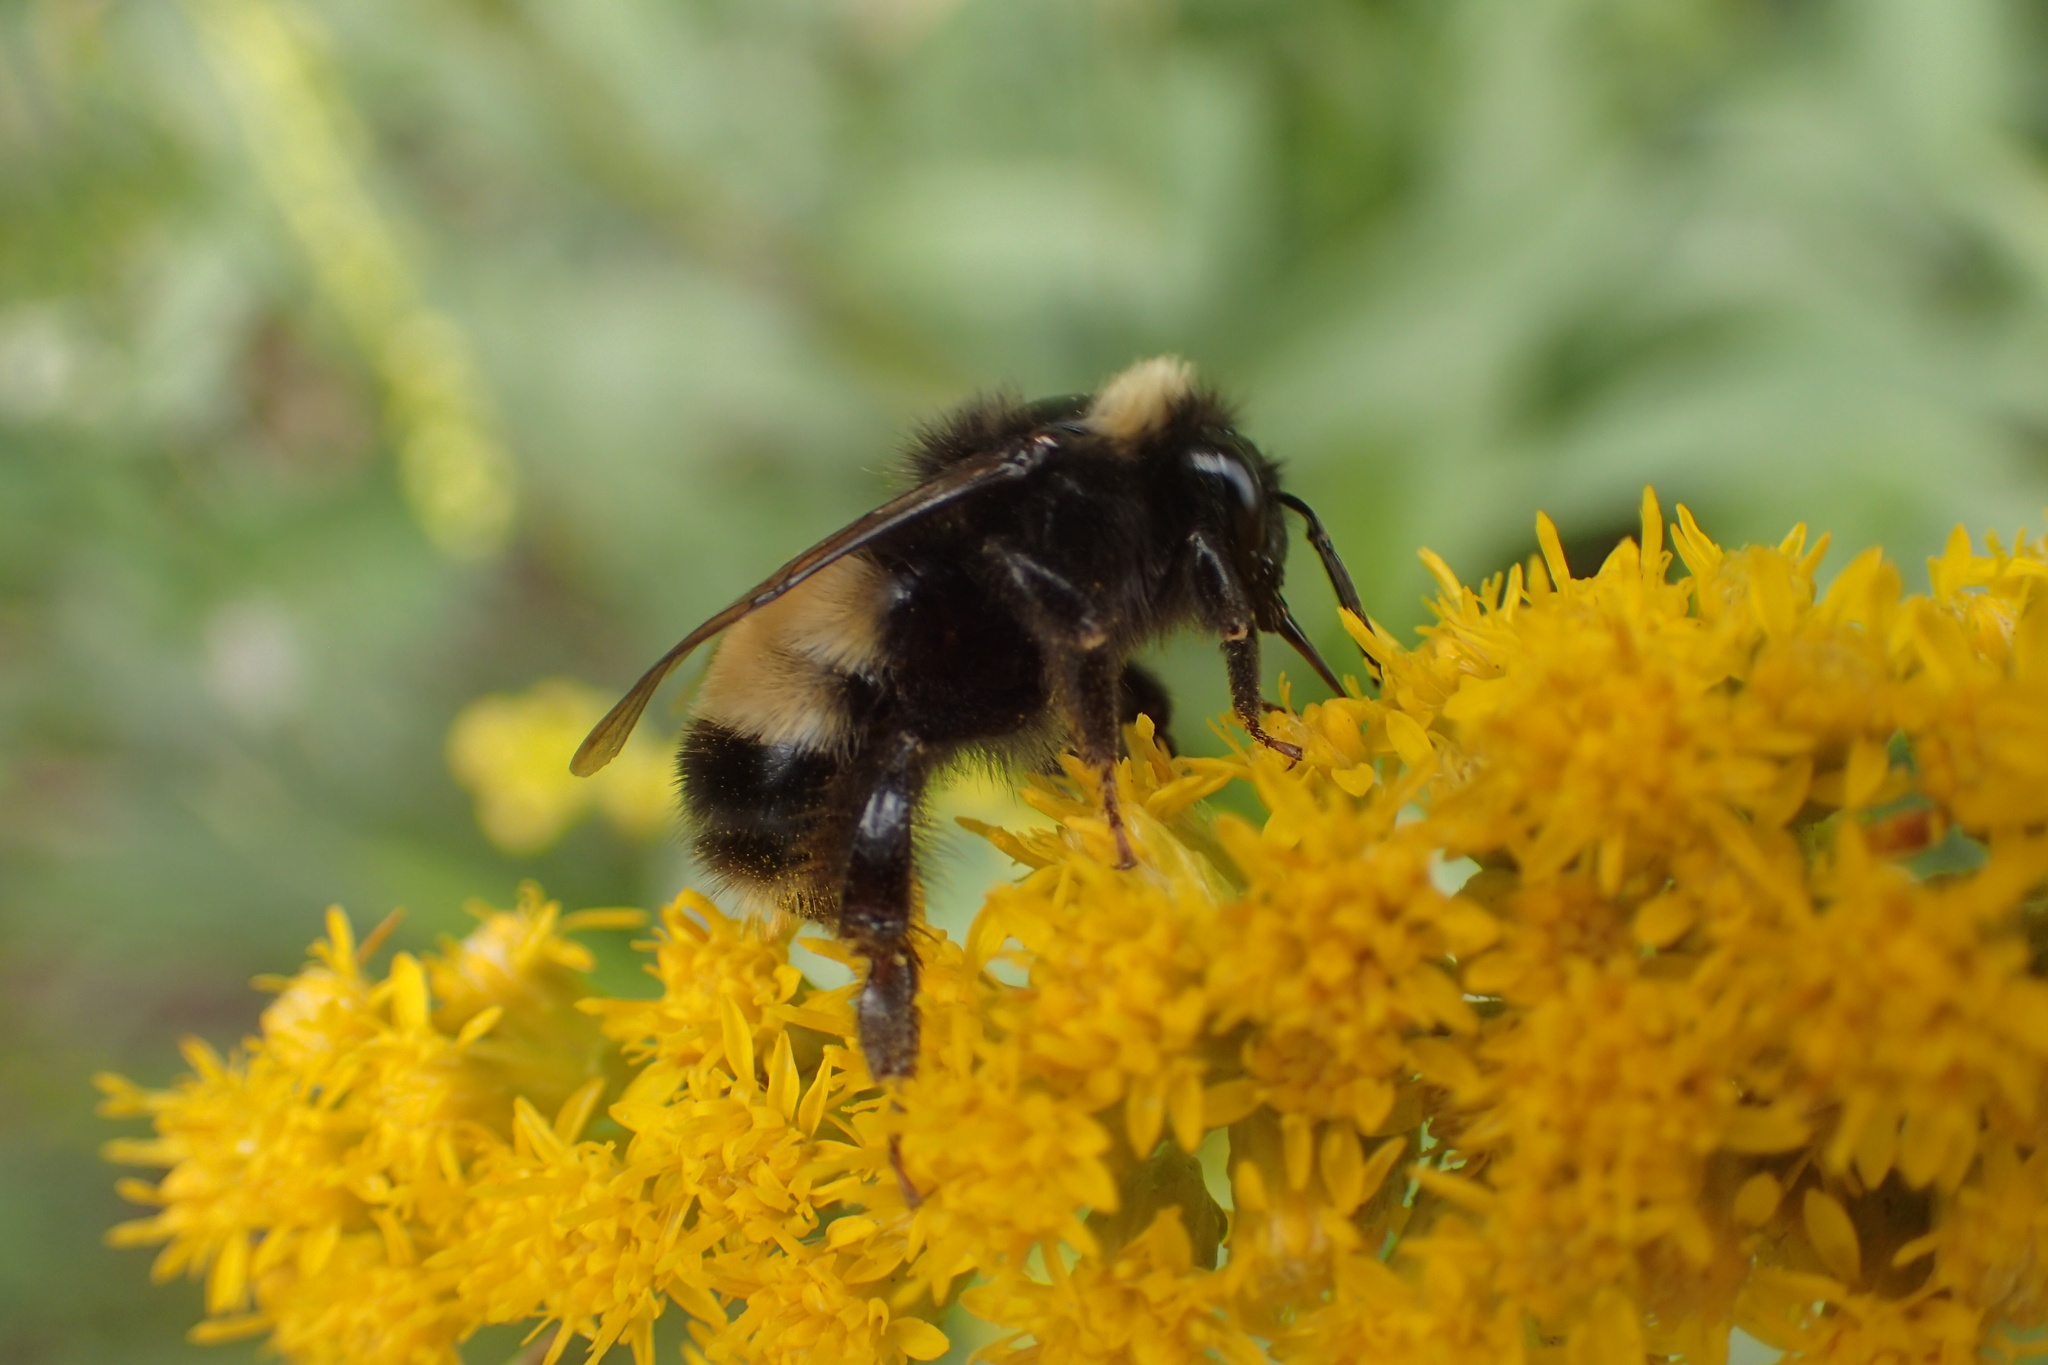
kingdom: Animalia
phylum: Arthropoda
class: Insecta
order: Hymenoptera
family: Apidae
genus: Bombus
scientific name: Bombus terricola
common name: Yellow-banded bumble bee
